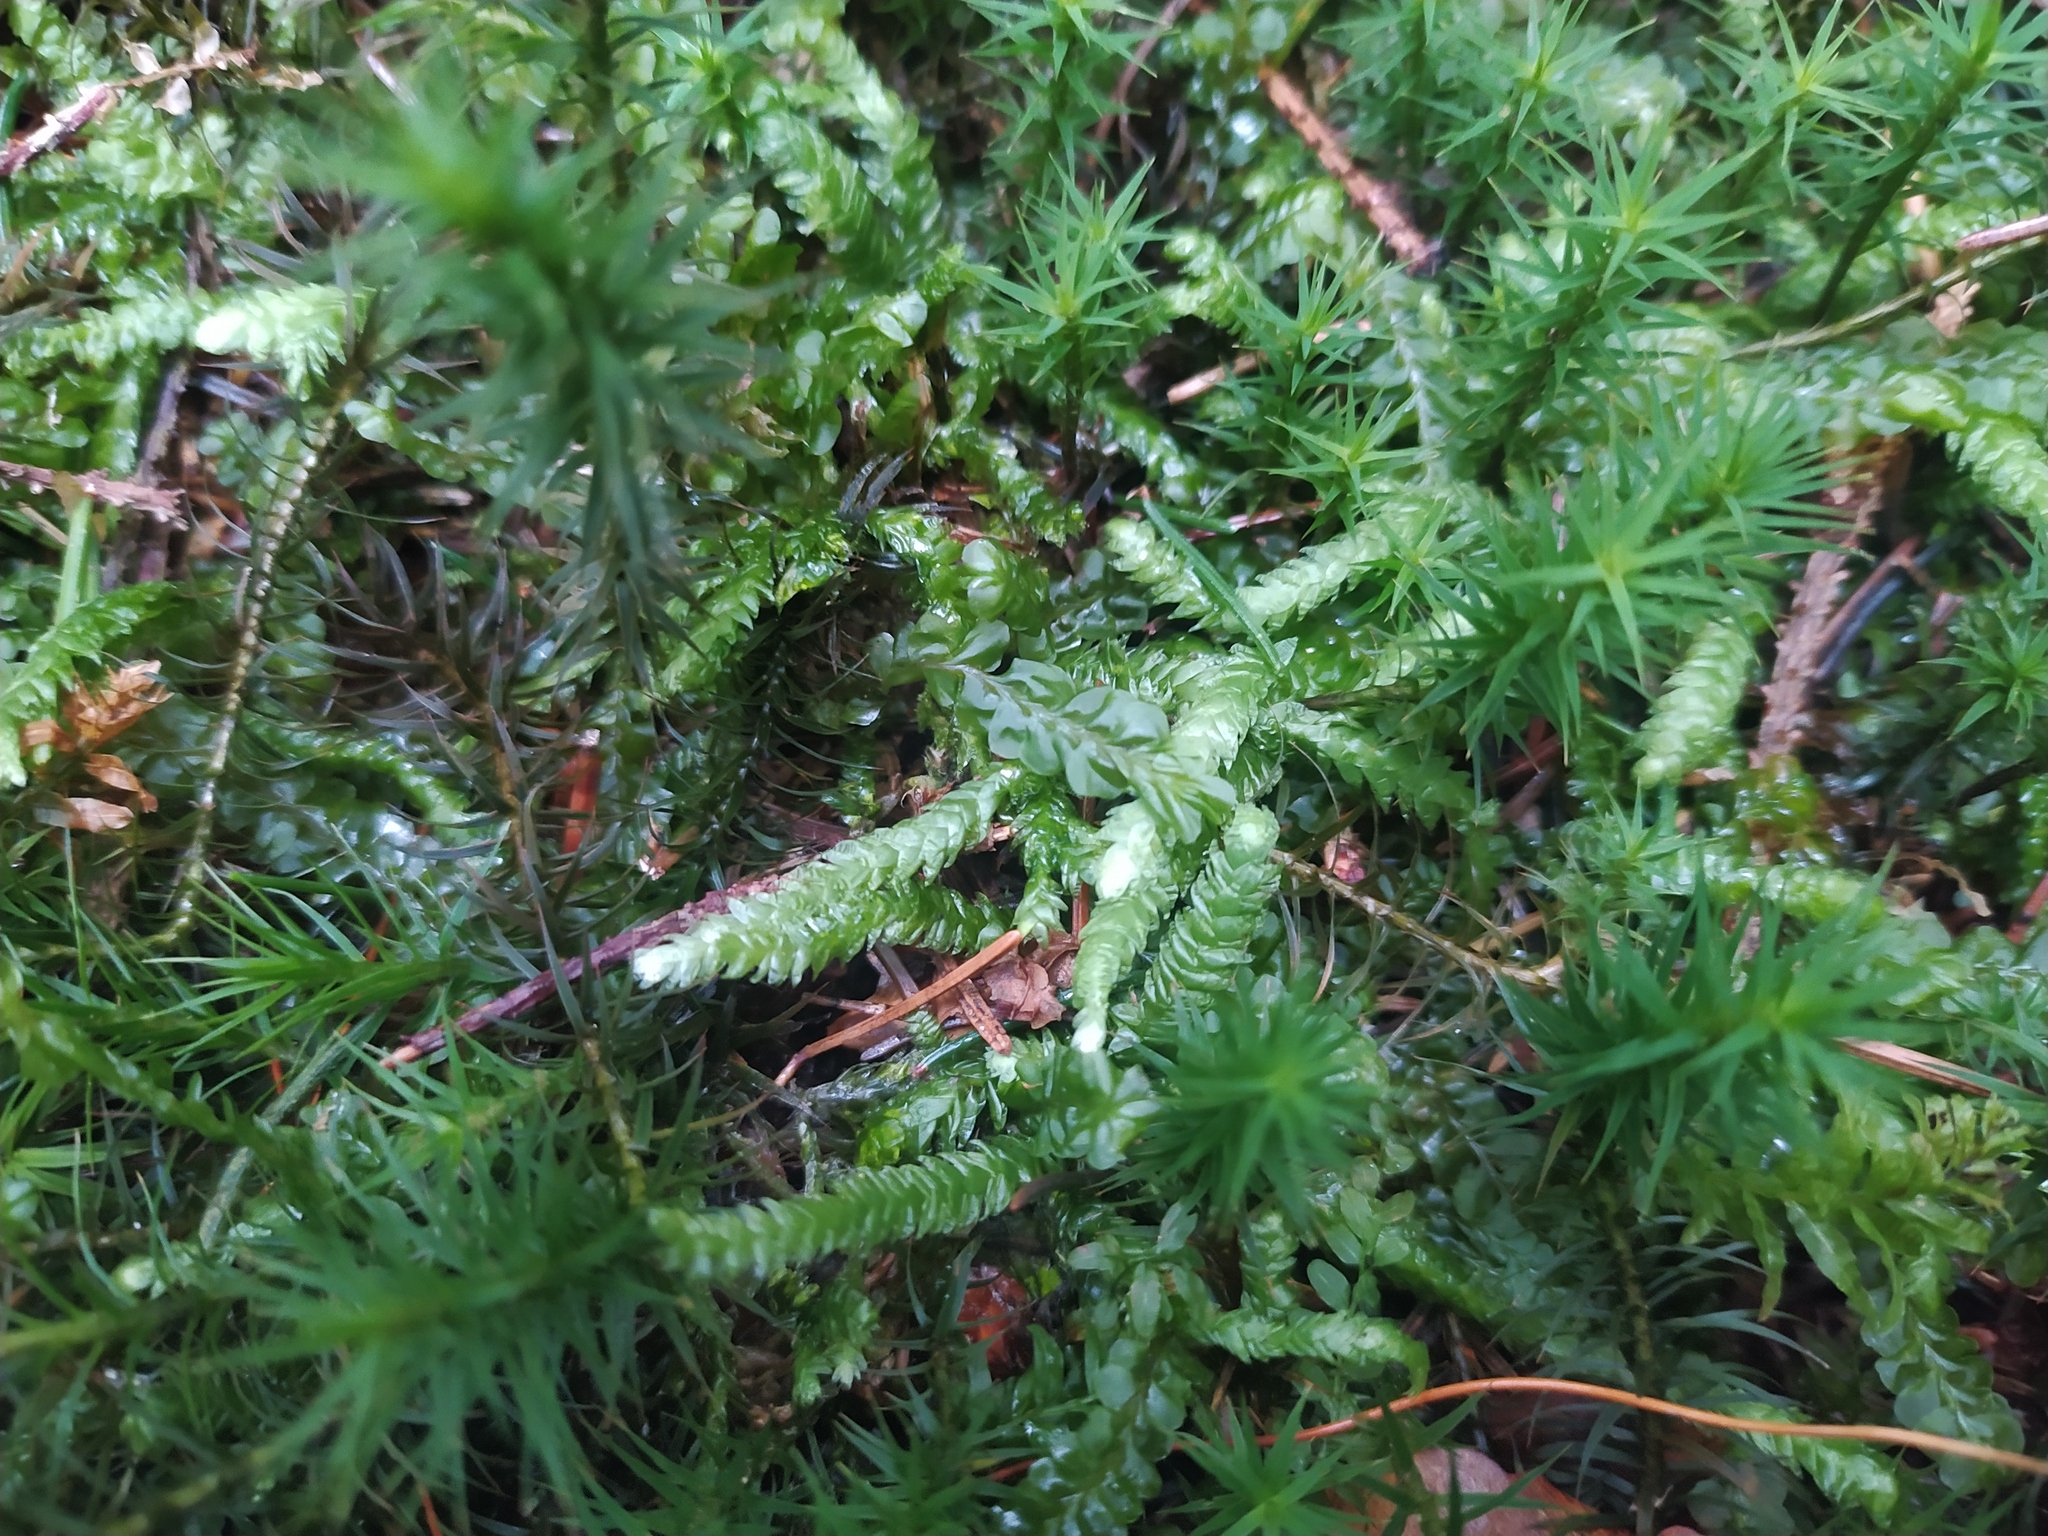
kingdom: Plantae
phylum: Bryophyta
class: Bryopsida
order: Hypnales
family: Plagiotheciaceae
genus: Plagiothecium
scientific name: Plagiothecium undulatum
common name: Waved silk-moss
